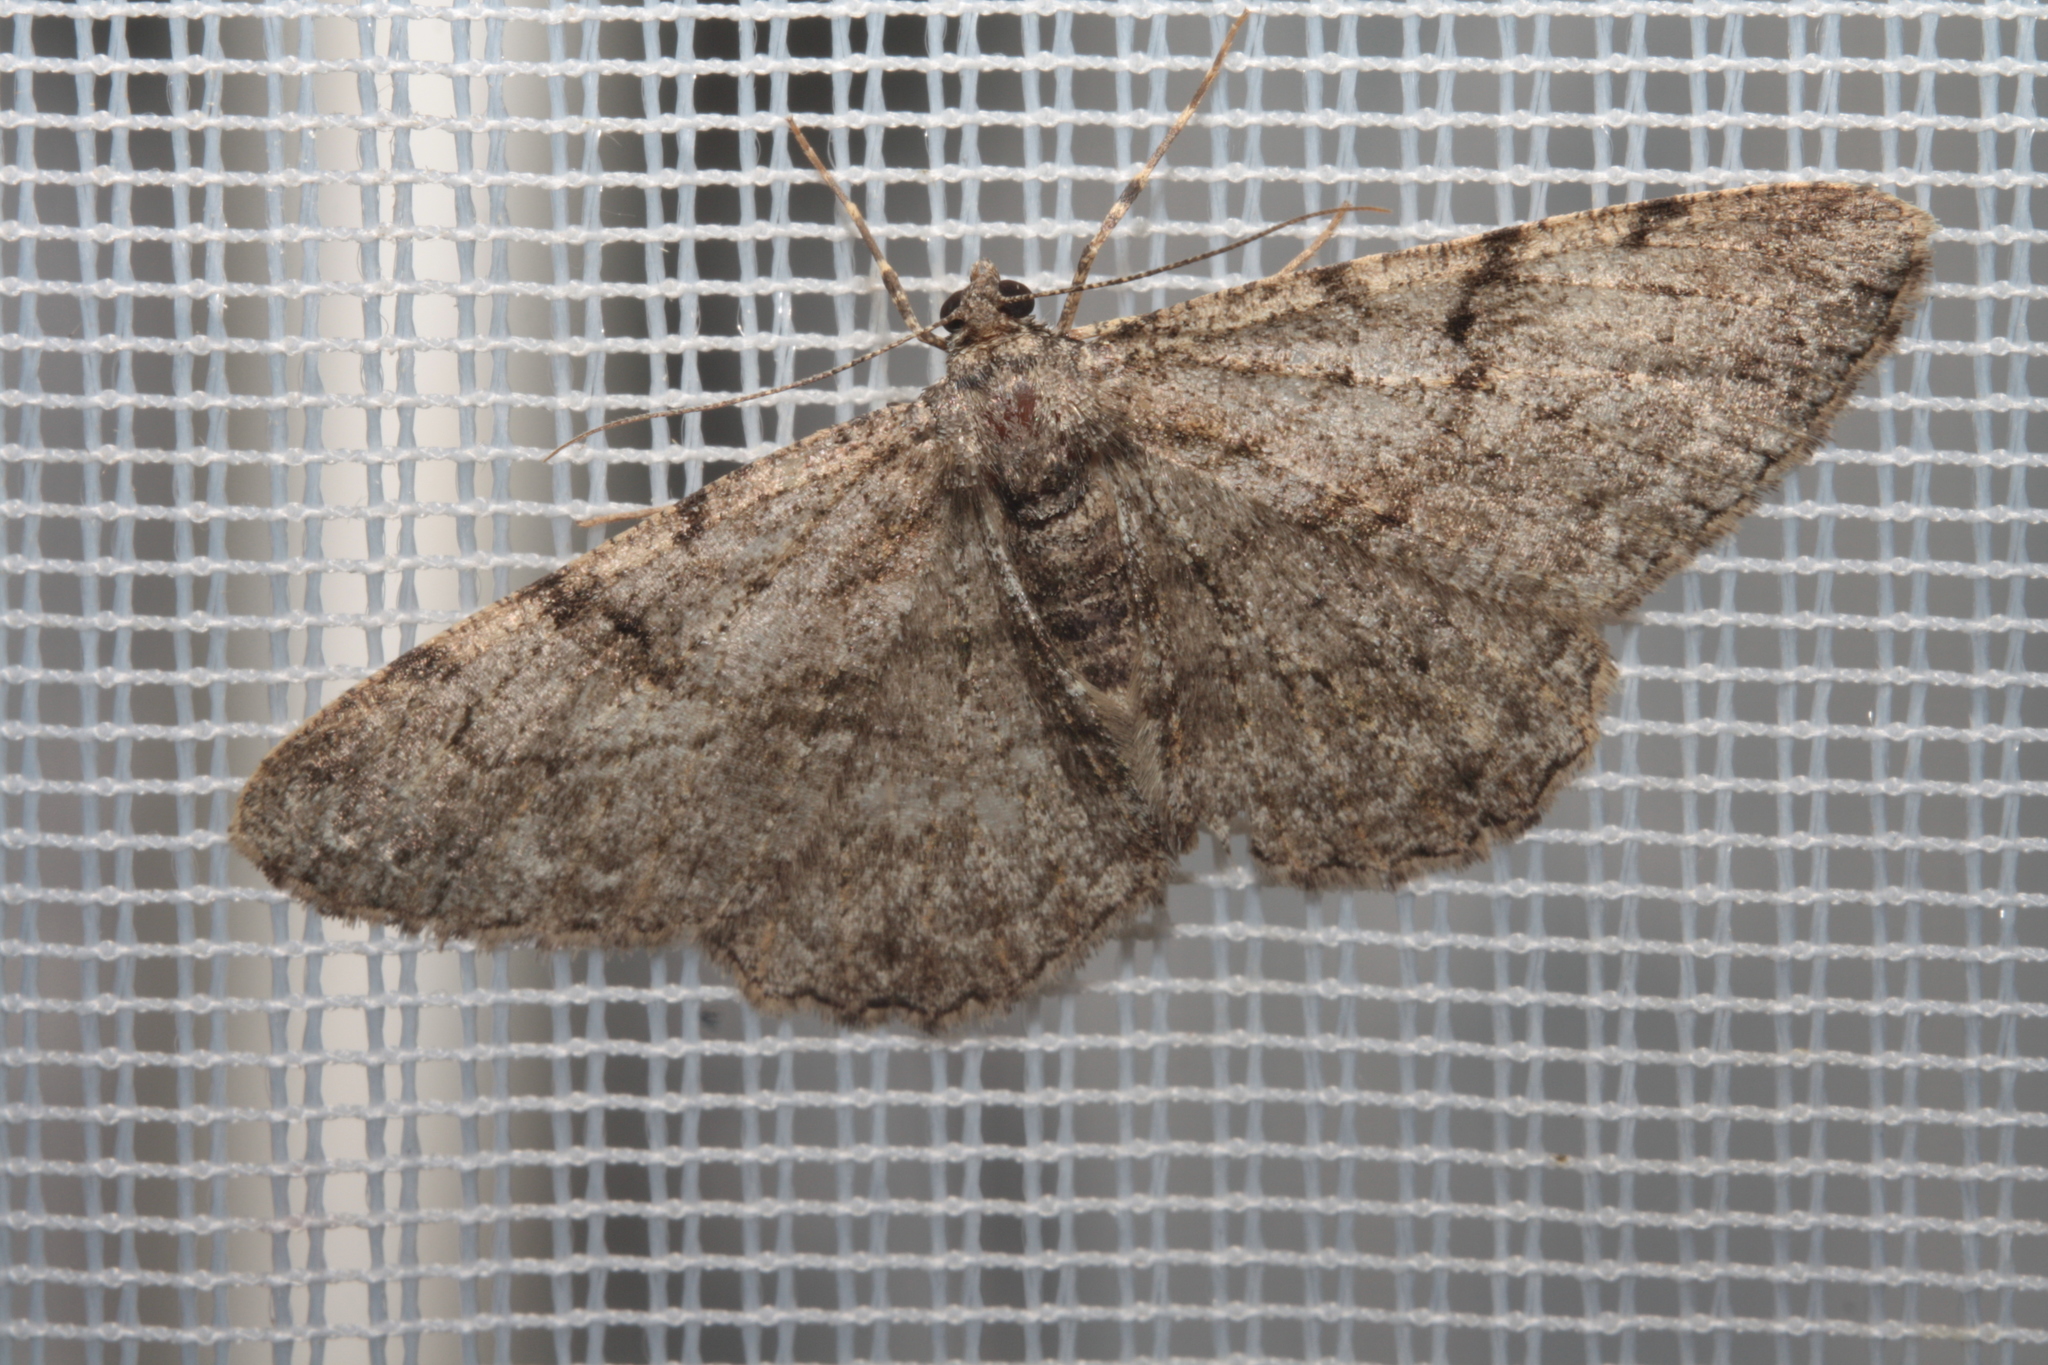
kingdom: Animalia
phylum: Arthropoda
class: Insecta
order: Lepidoptera
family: Geometridae
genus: Peribatodes
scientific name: Peribatodes rhomboidaria
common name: Willow beauty
